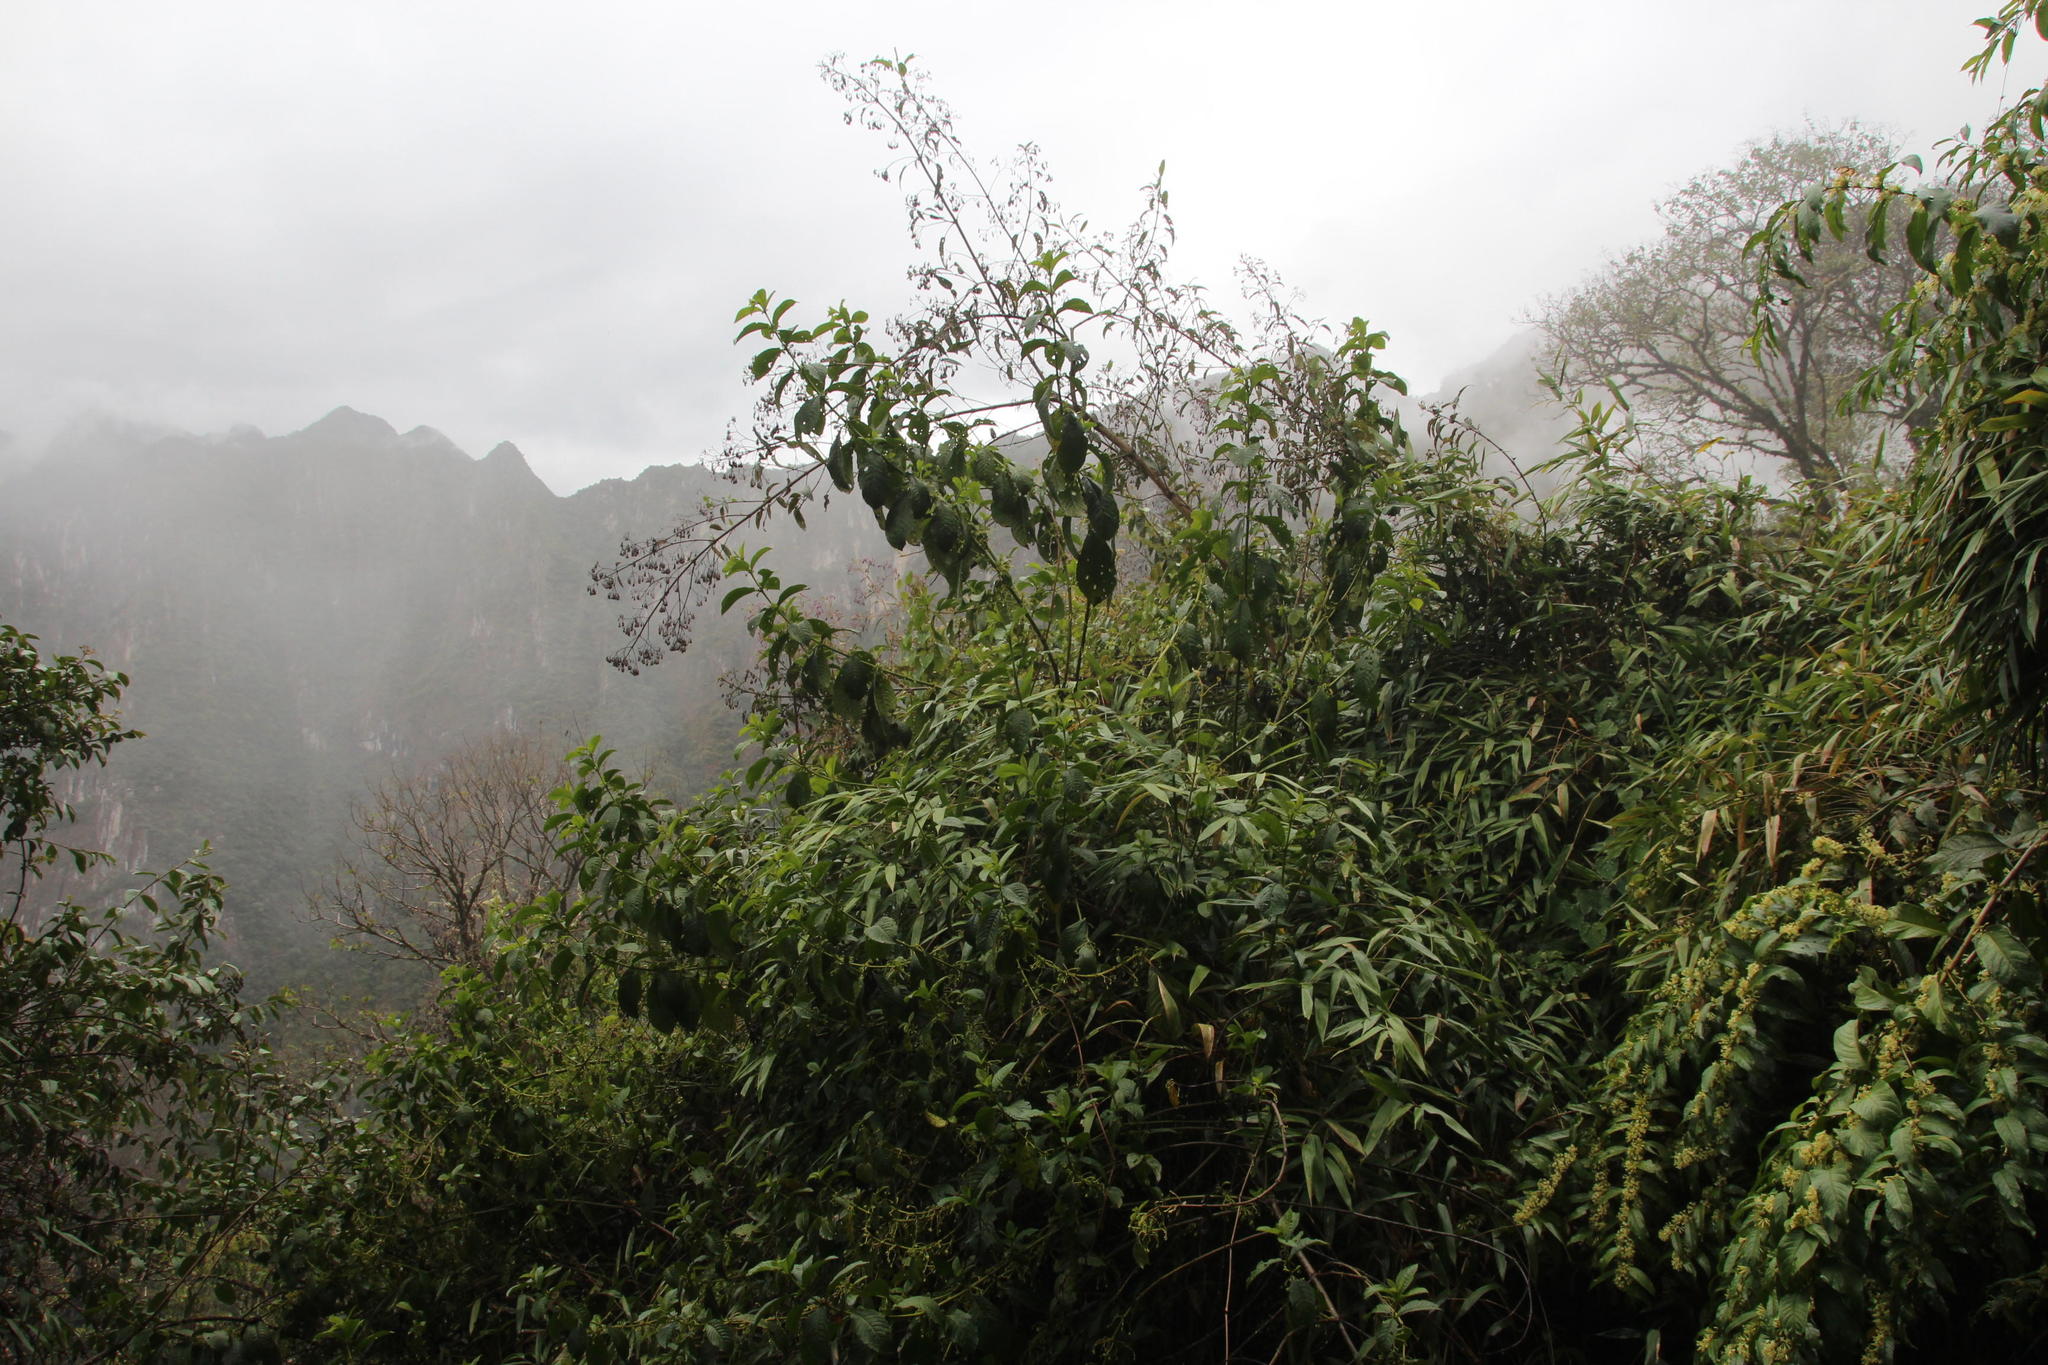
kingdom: Plantae
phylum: Tracheophyta
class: Magnoliopsida
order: Lamiales
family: Lamiaceae
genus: Condea
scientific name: Condea tafallae
